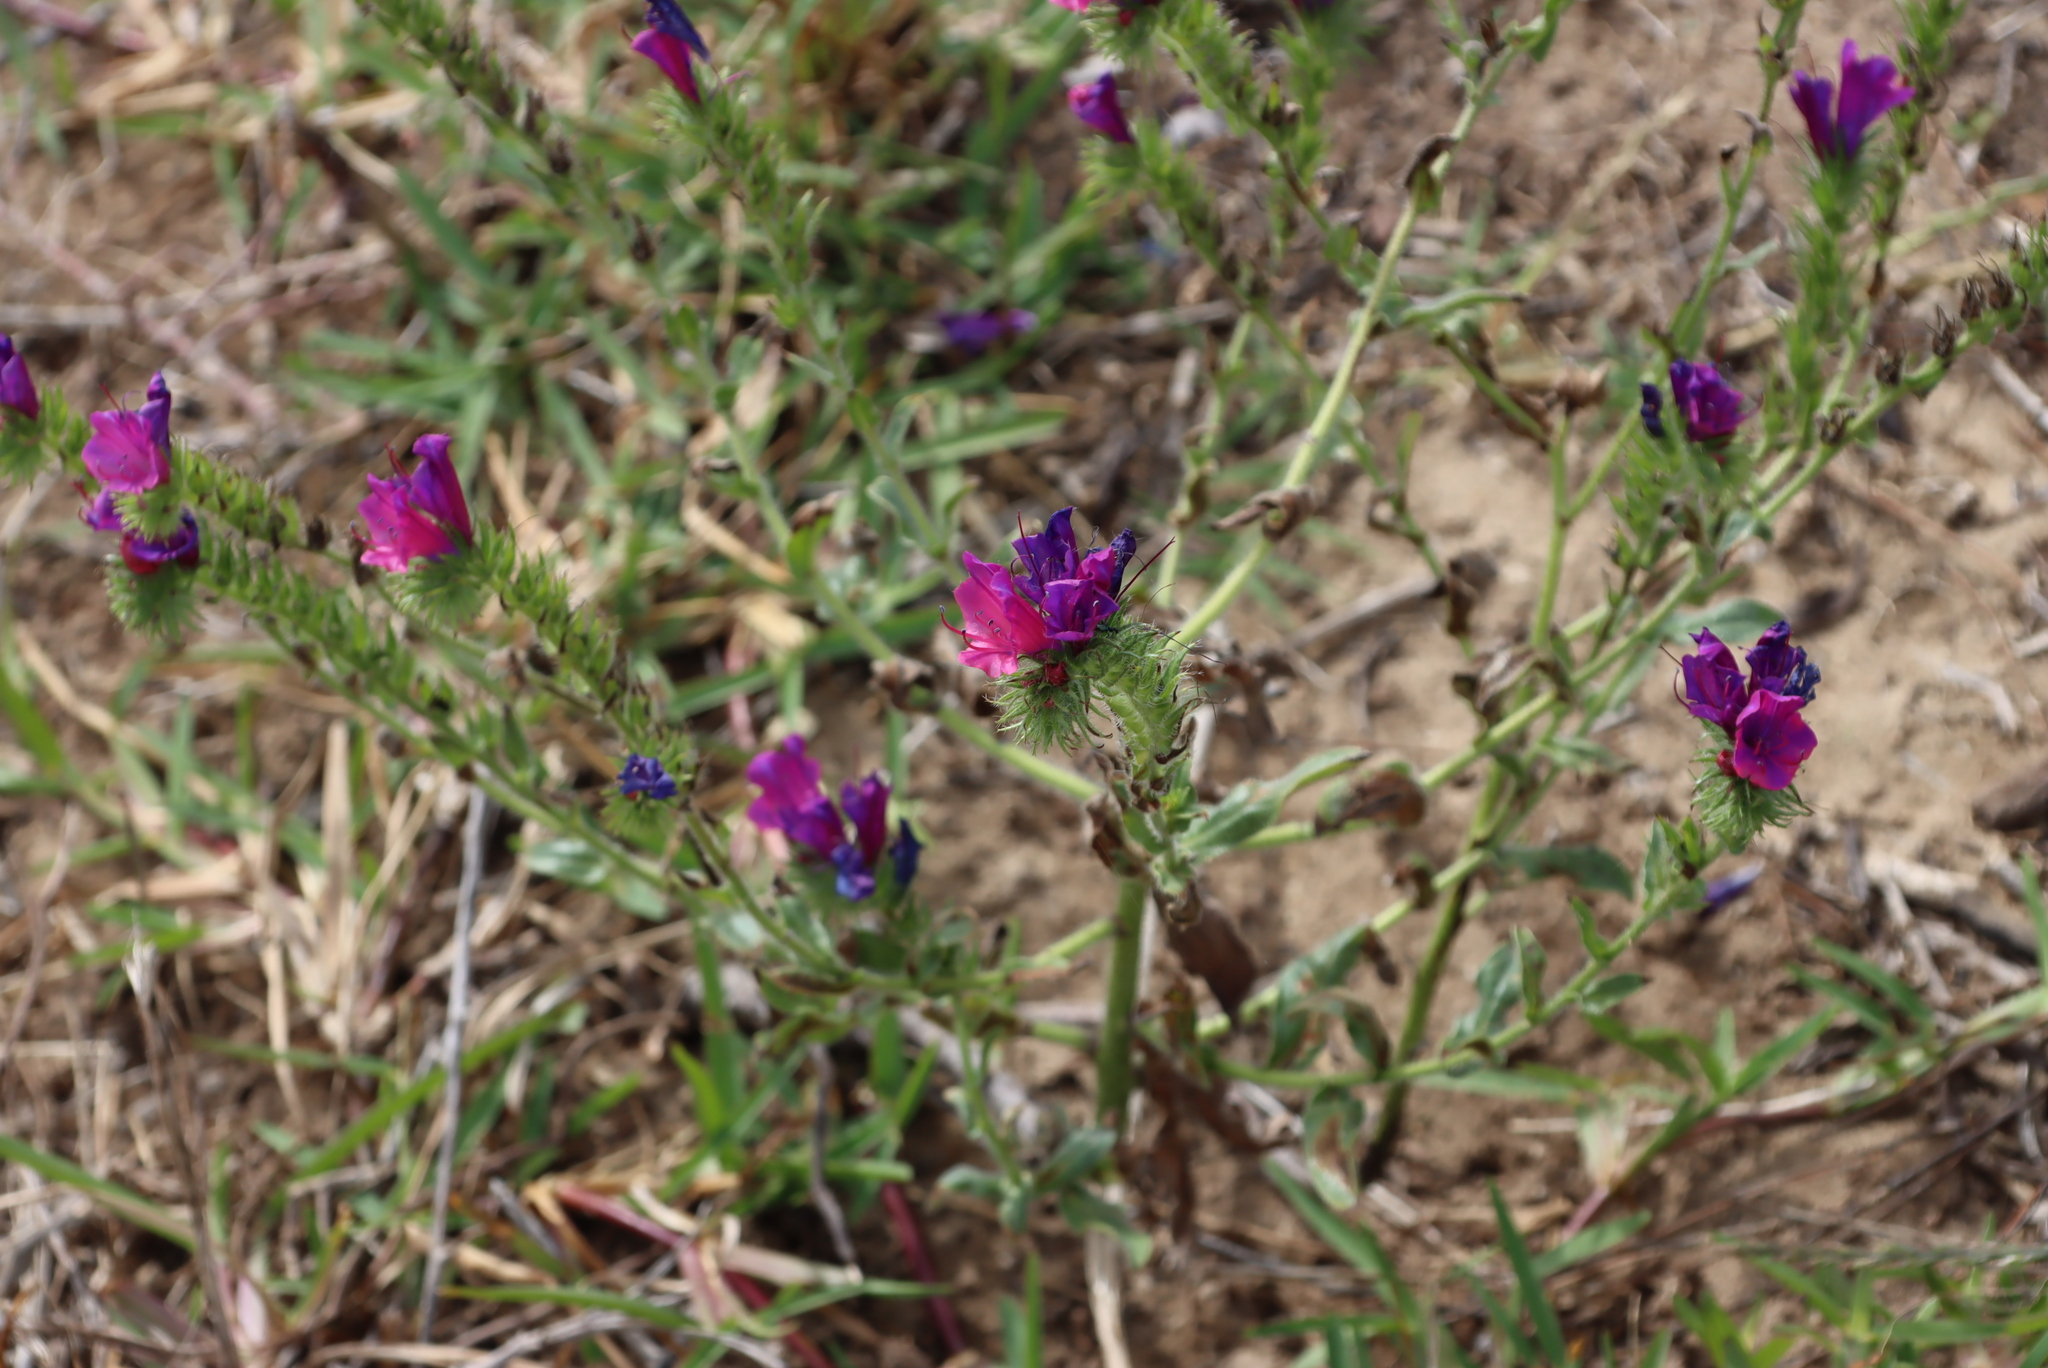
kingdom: Plantae
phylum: Tracheophyta
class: Magnoliopsida
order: Boraginales
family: Boraginaceae
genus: Echium
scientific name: Echium plantagineum
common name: Purple viper's-bugloss
